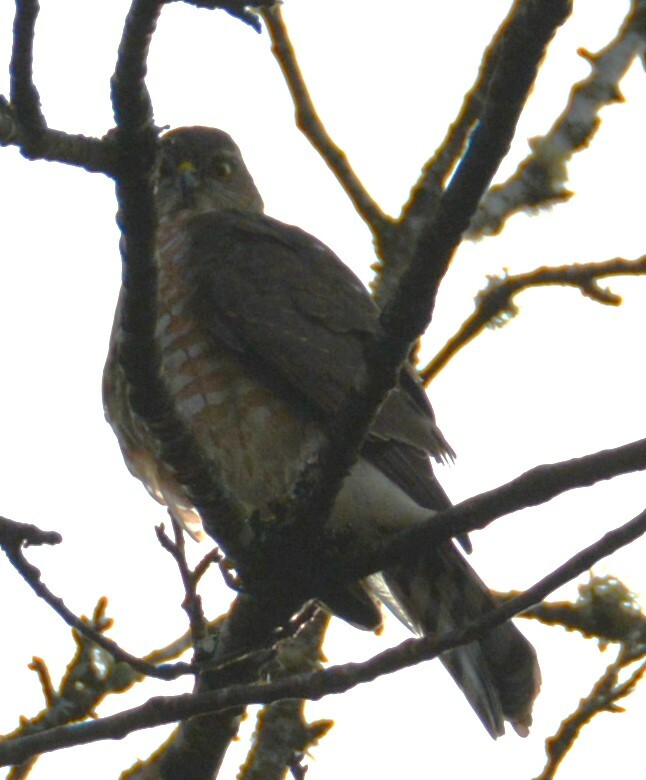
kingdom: Animalia
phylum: Chordata
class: Aves
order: Accipitriformes
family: Accipitridae
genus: Accipiter
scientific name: Accipiter striatus
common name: Sharp-shinned hawk
